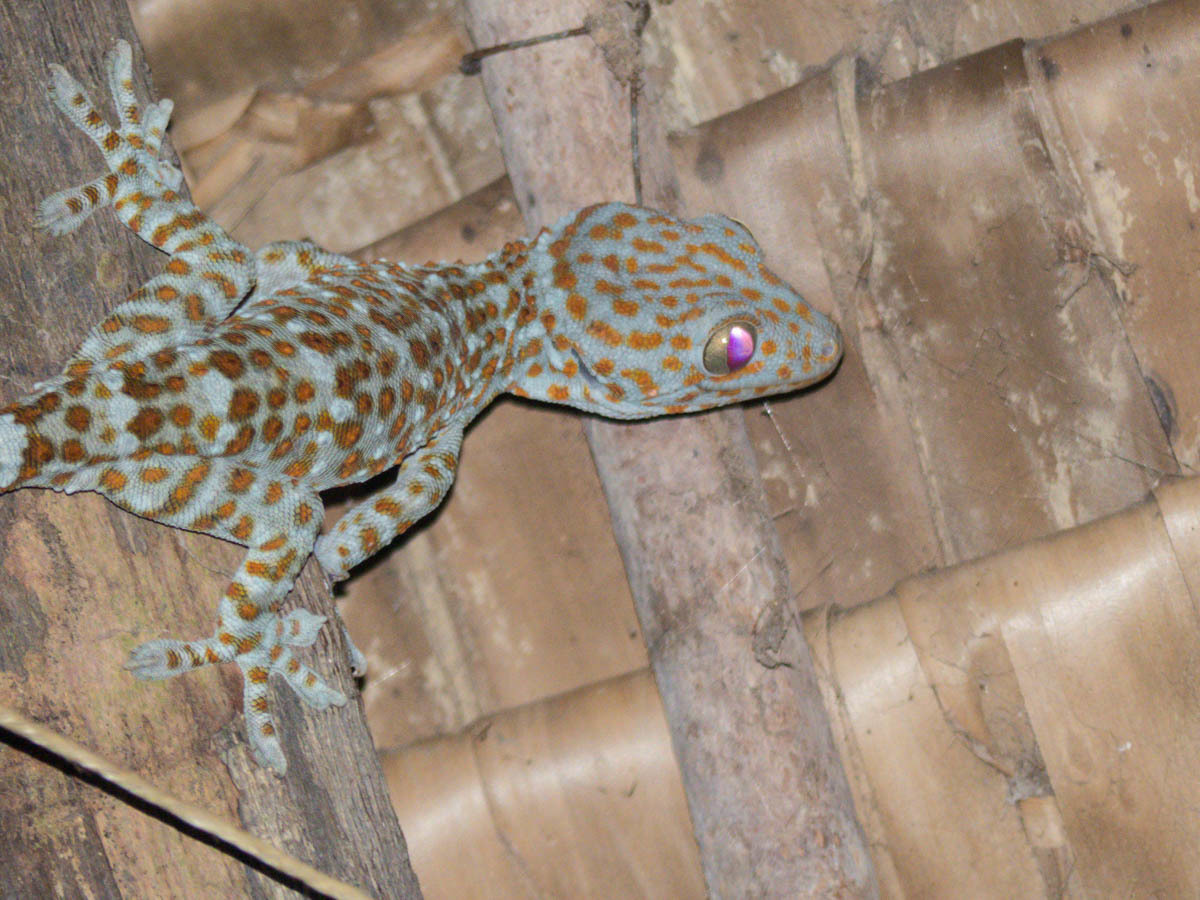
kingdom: Animalia
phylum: Chordata
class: Squamata
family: Gekkonidae
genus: Gekko
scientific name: Gekko gecko
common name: Tokay gecko
